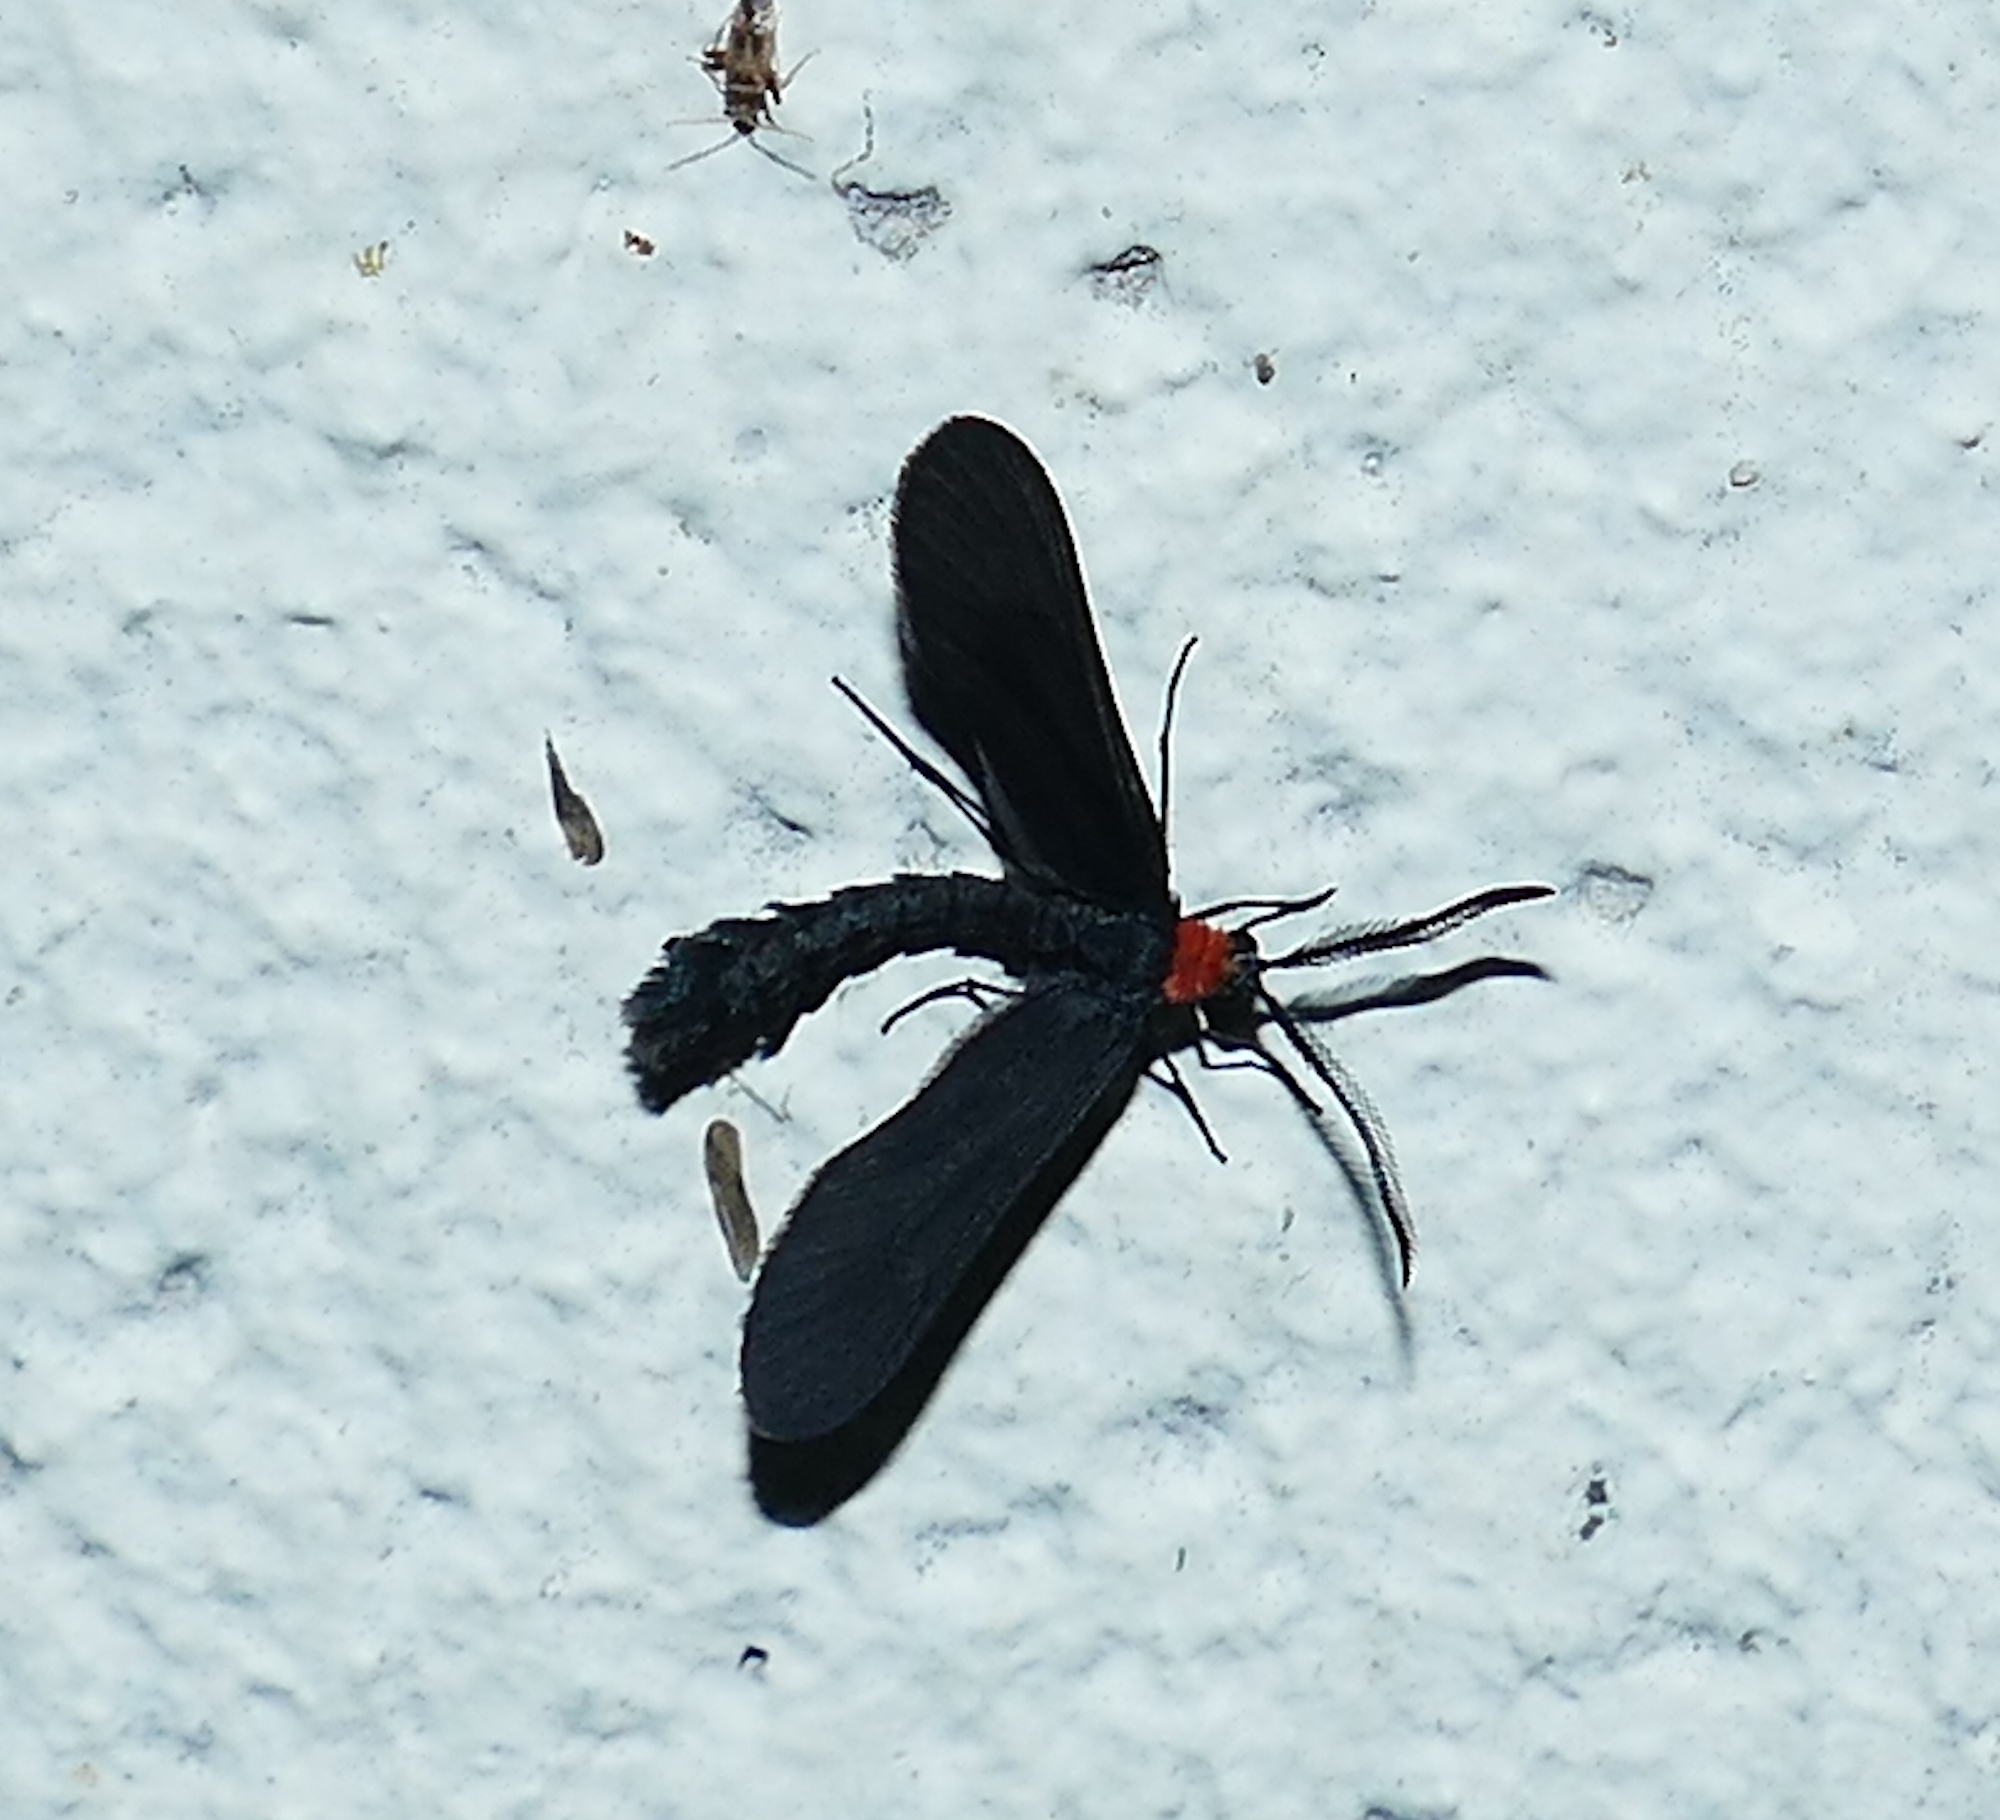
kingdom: Animalia
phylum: Arthropoda
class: Insecta
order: Lepidoptera
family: Zygaenidae
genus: Harrisina
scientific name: Harrisina americana
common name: Grapeleaf skeletonizer moth
